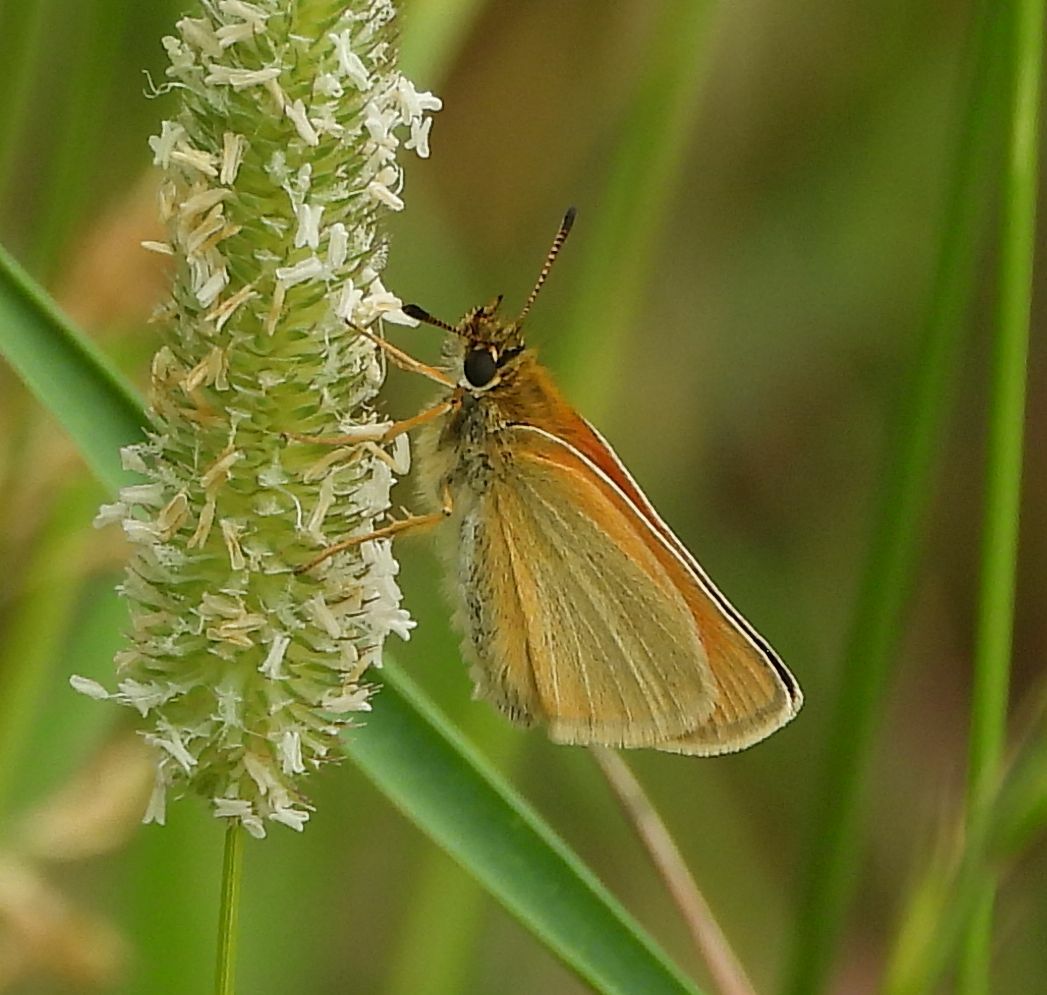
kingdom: Animalia
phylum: Arthropoda
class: Insecta
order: Lepidoptera
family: Hesperiidae
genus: Thymelicus
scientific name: Thymelicus lineola
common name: Essex skipper
